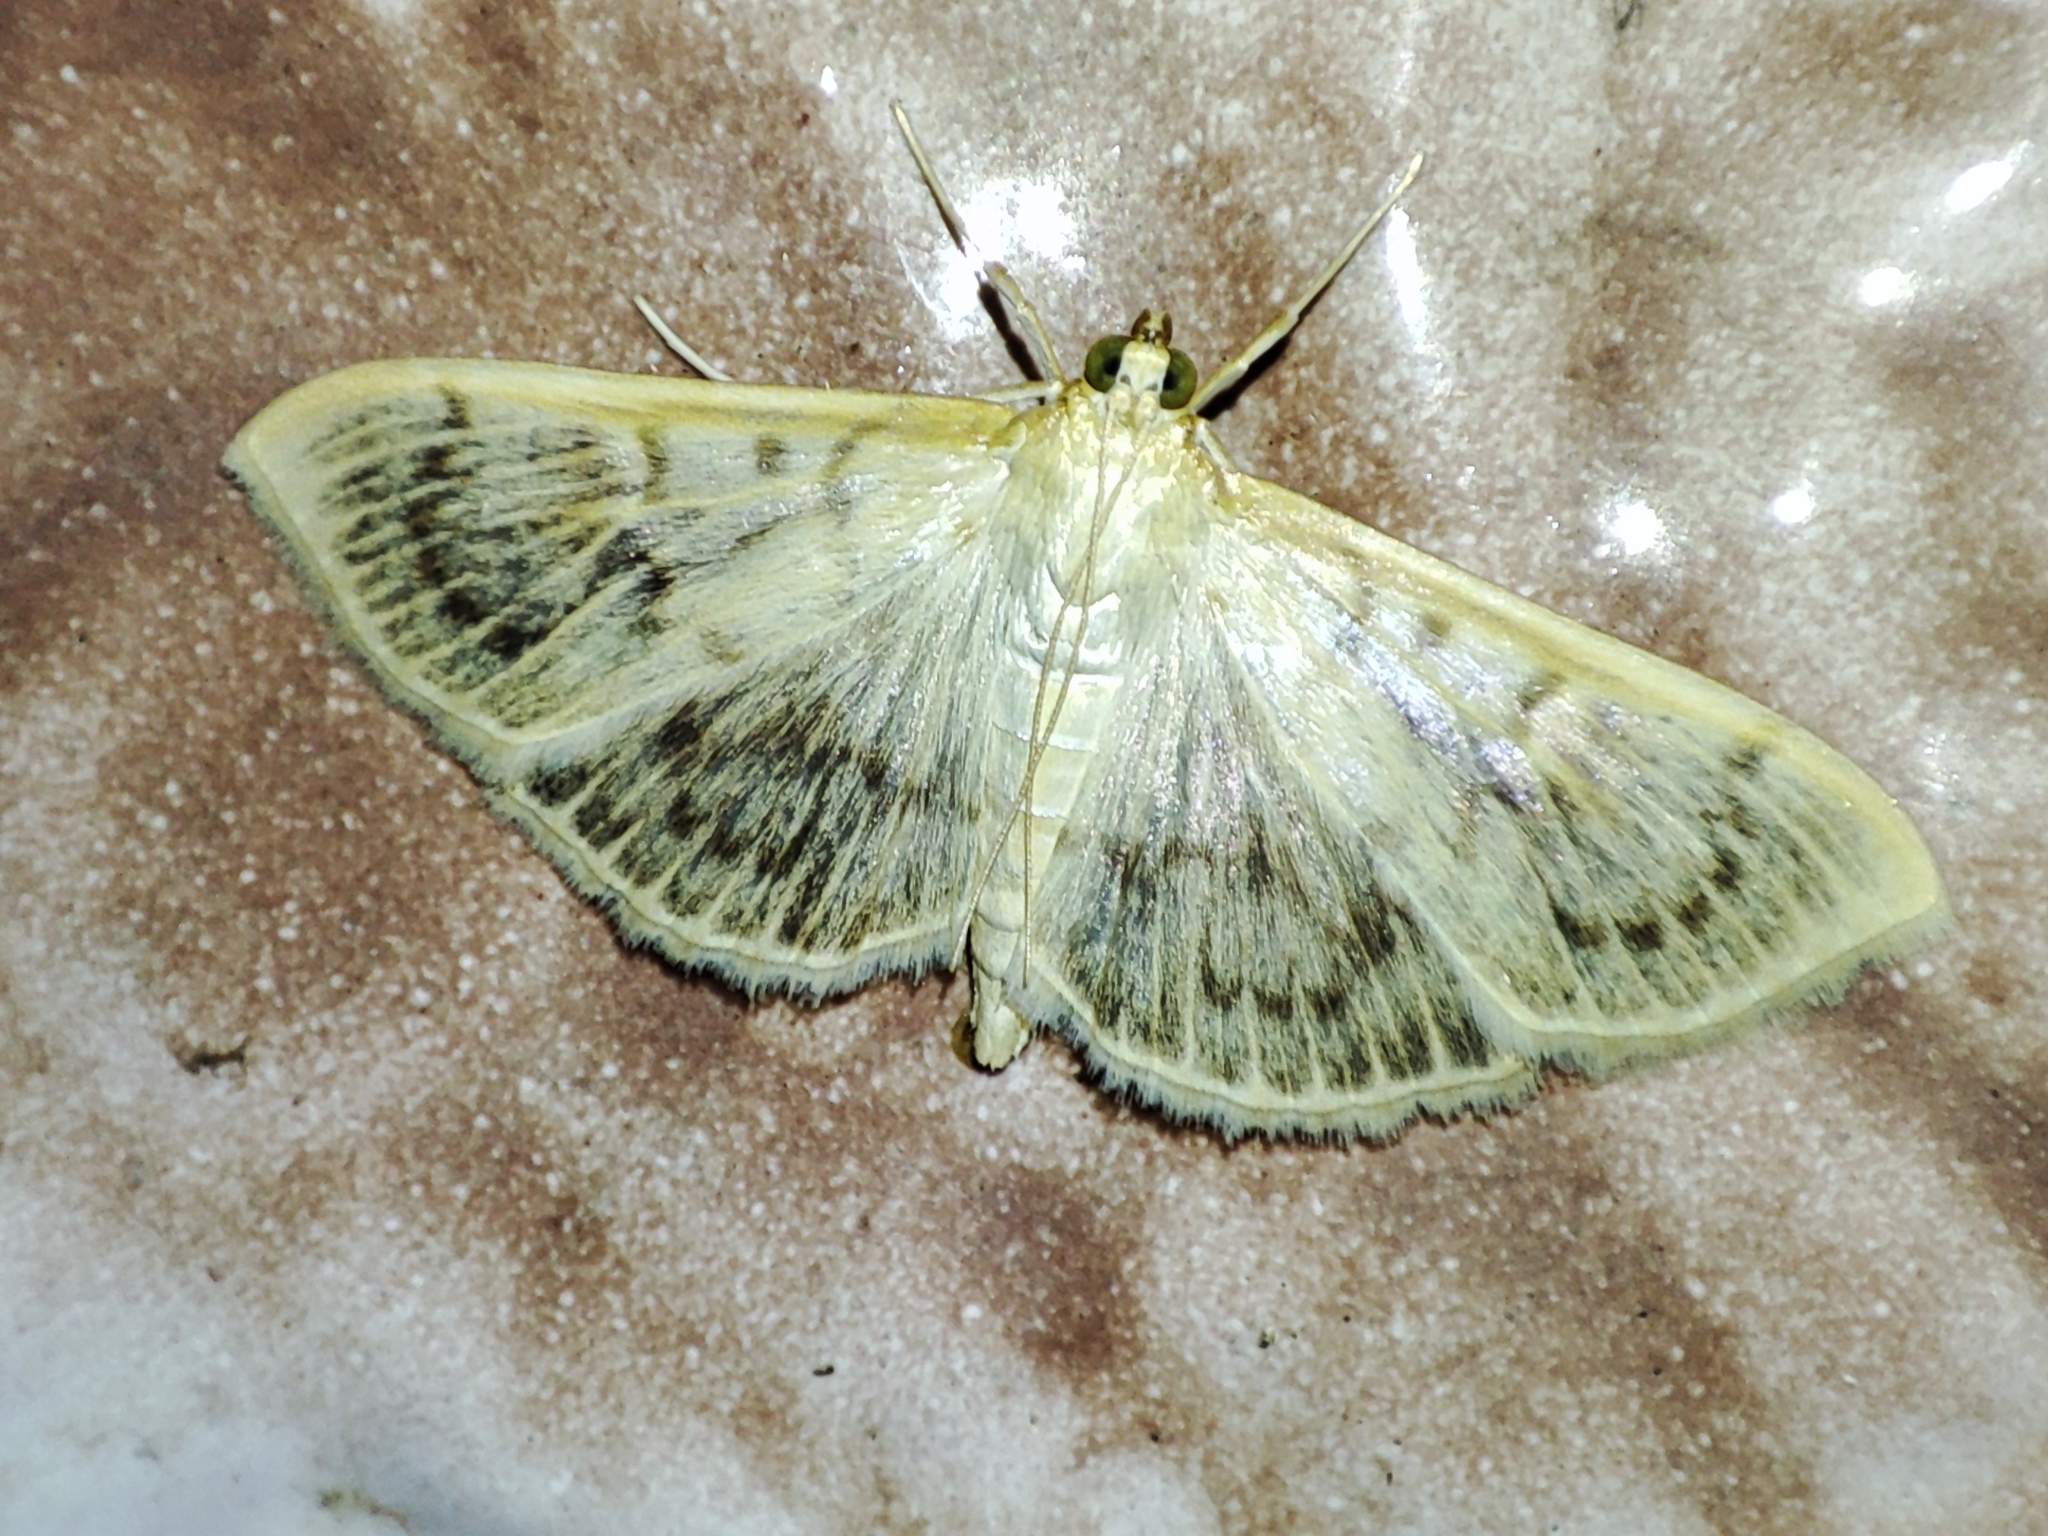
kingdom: Animalia
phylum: Arthropoda
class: Insecta
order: Lepidoptera
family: Crambidae
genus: Patania
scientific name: Patania ruralis
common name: Mother of pearl
